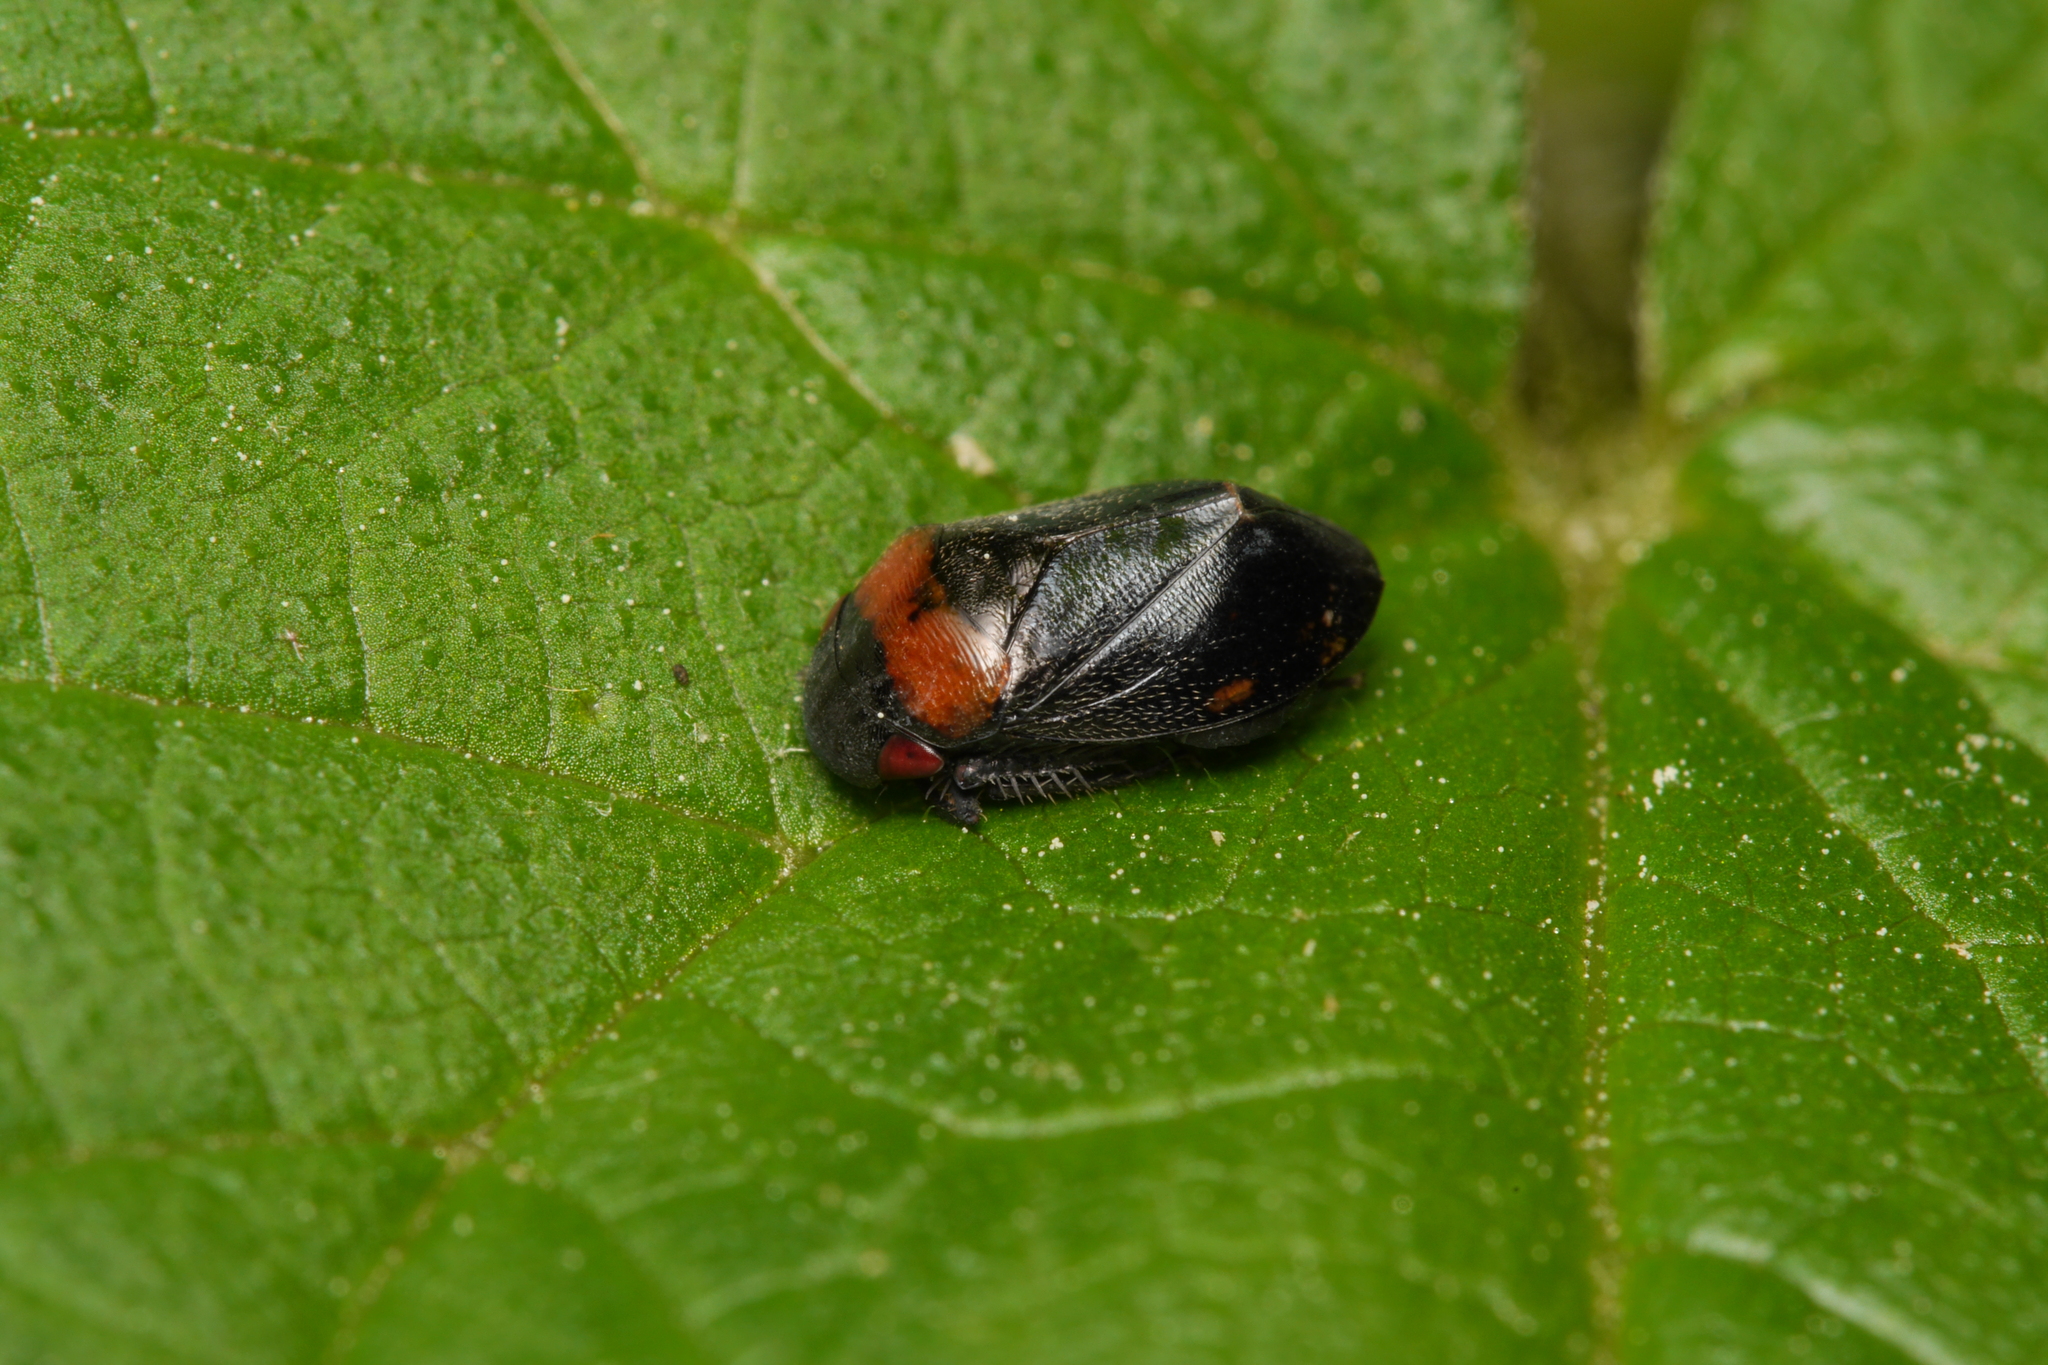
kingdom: Animalia
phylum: Arthropoda
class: Insecta
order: Hemiptera
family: Cicadellidae
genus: Penthimia
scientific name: Penthimia nigra
